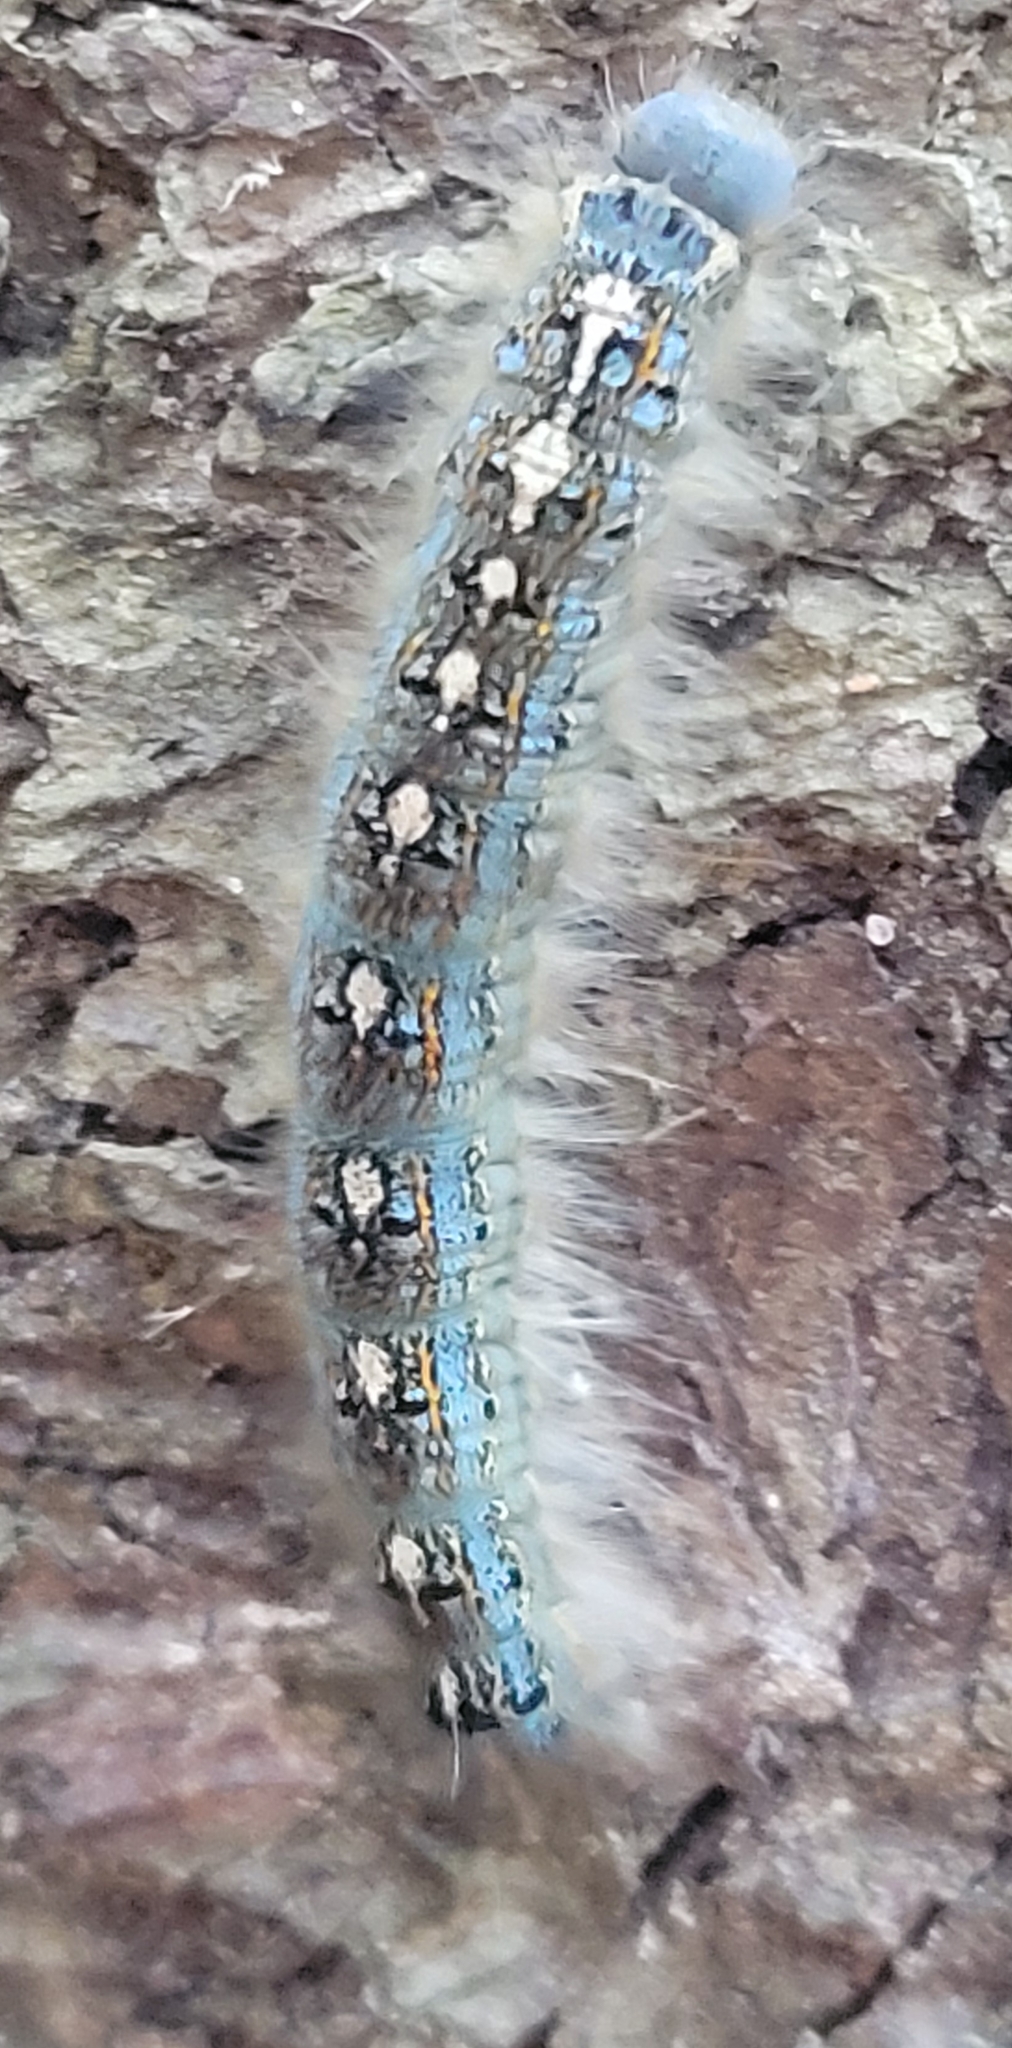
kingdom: Animalia
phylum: Arthropoda
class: Insecta
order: Lepidoptera
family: Lasiocampidae
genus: Malacosoma
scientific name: Malacosoma disstria
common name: Forest tent caterpillar
